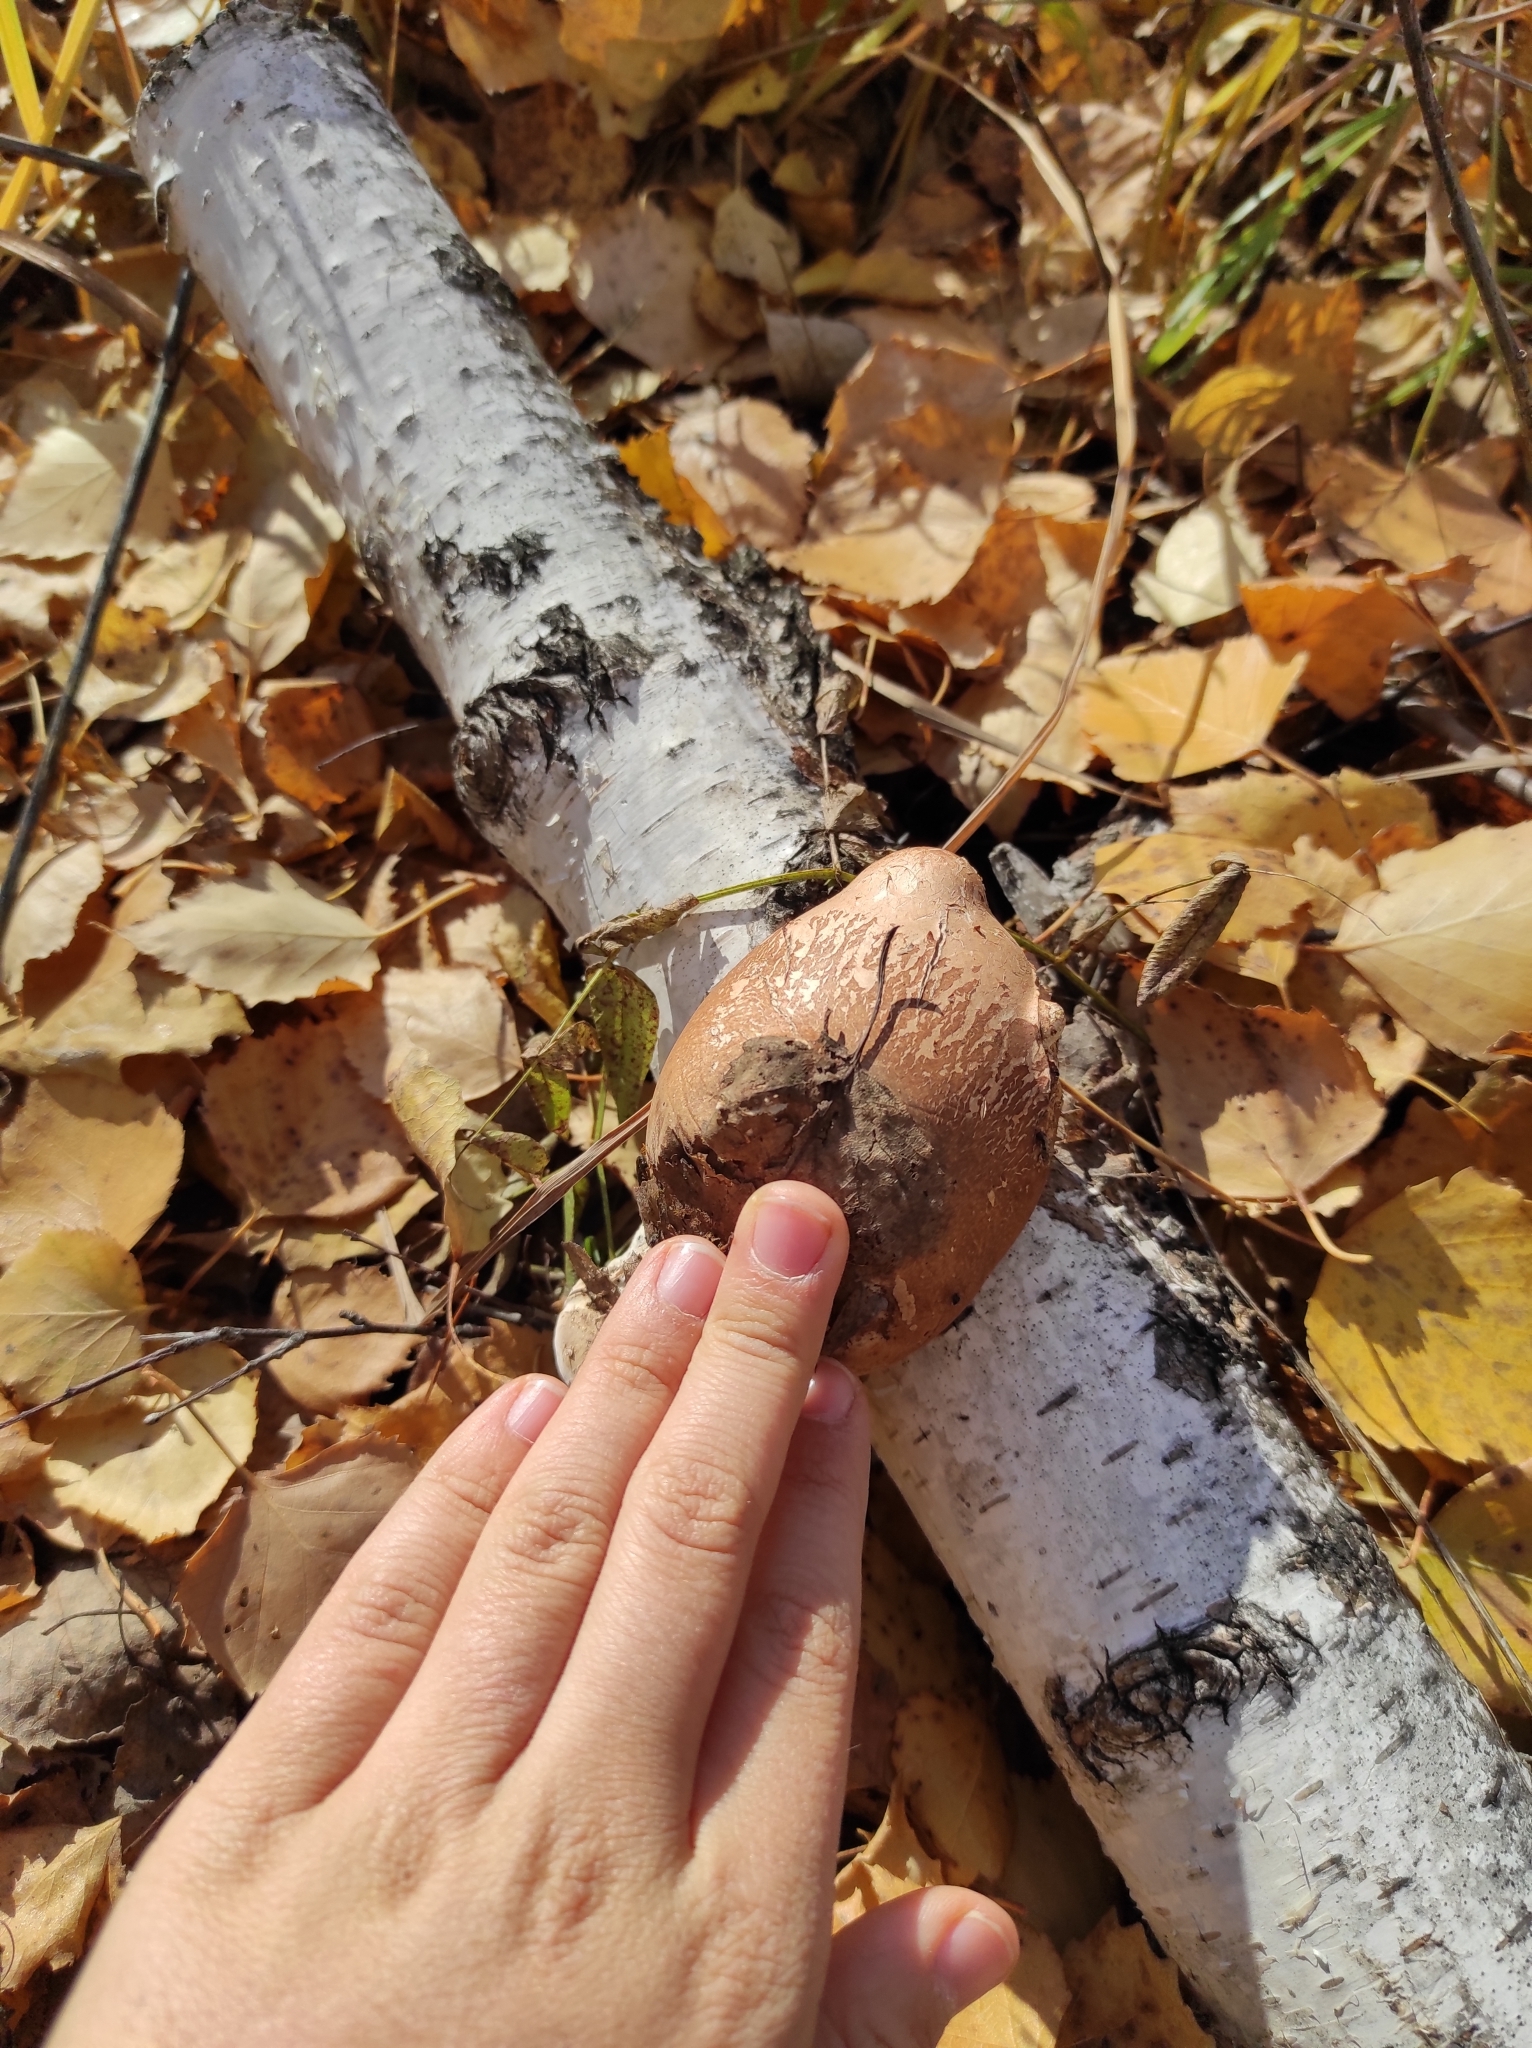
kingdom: Fungi
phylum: Basidiomycota
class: Agaricomycetes
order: Polyporales
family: Fomitopsidaceae
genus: Fomitopsis
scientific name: Fomitopsis betulina
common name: Birch polypore
